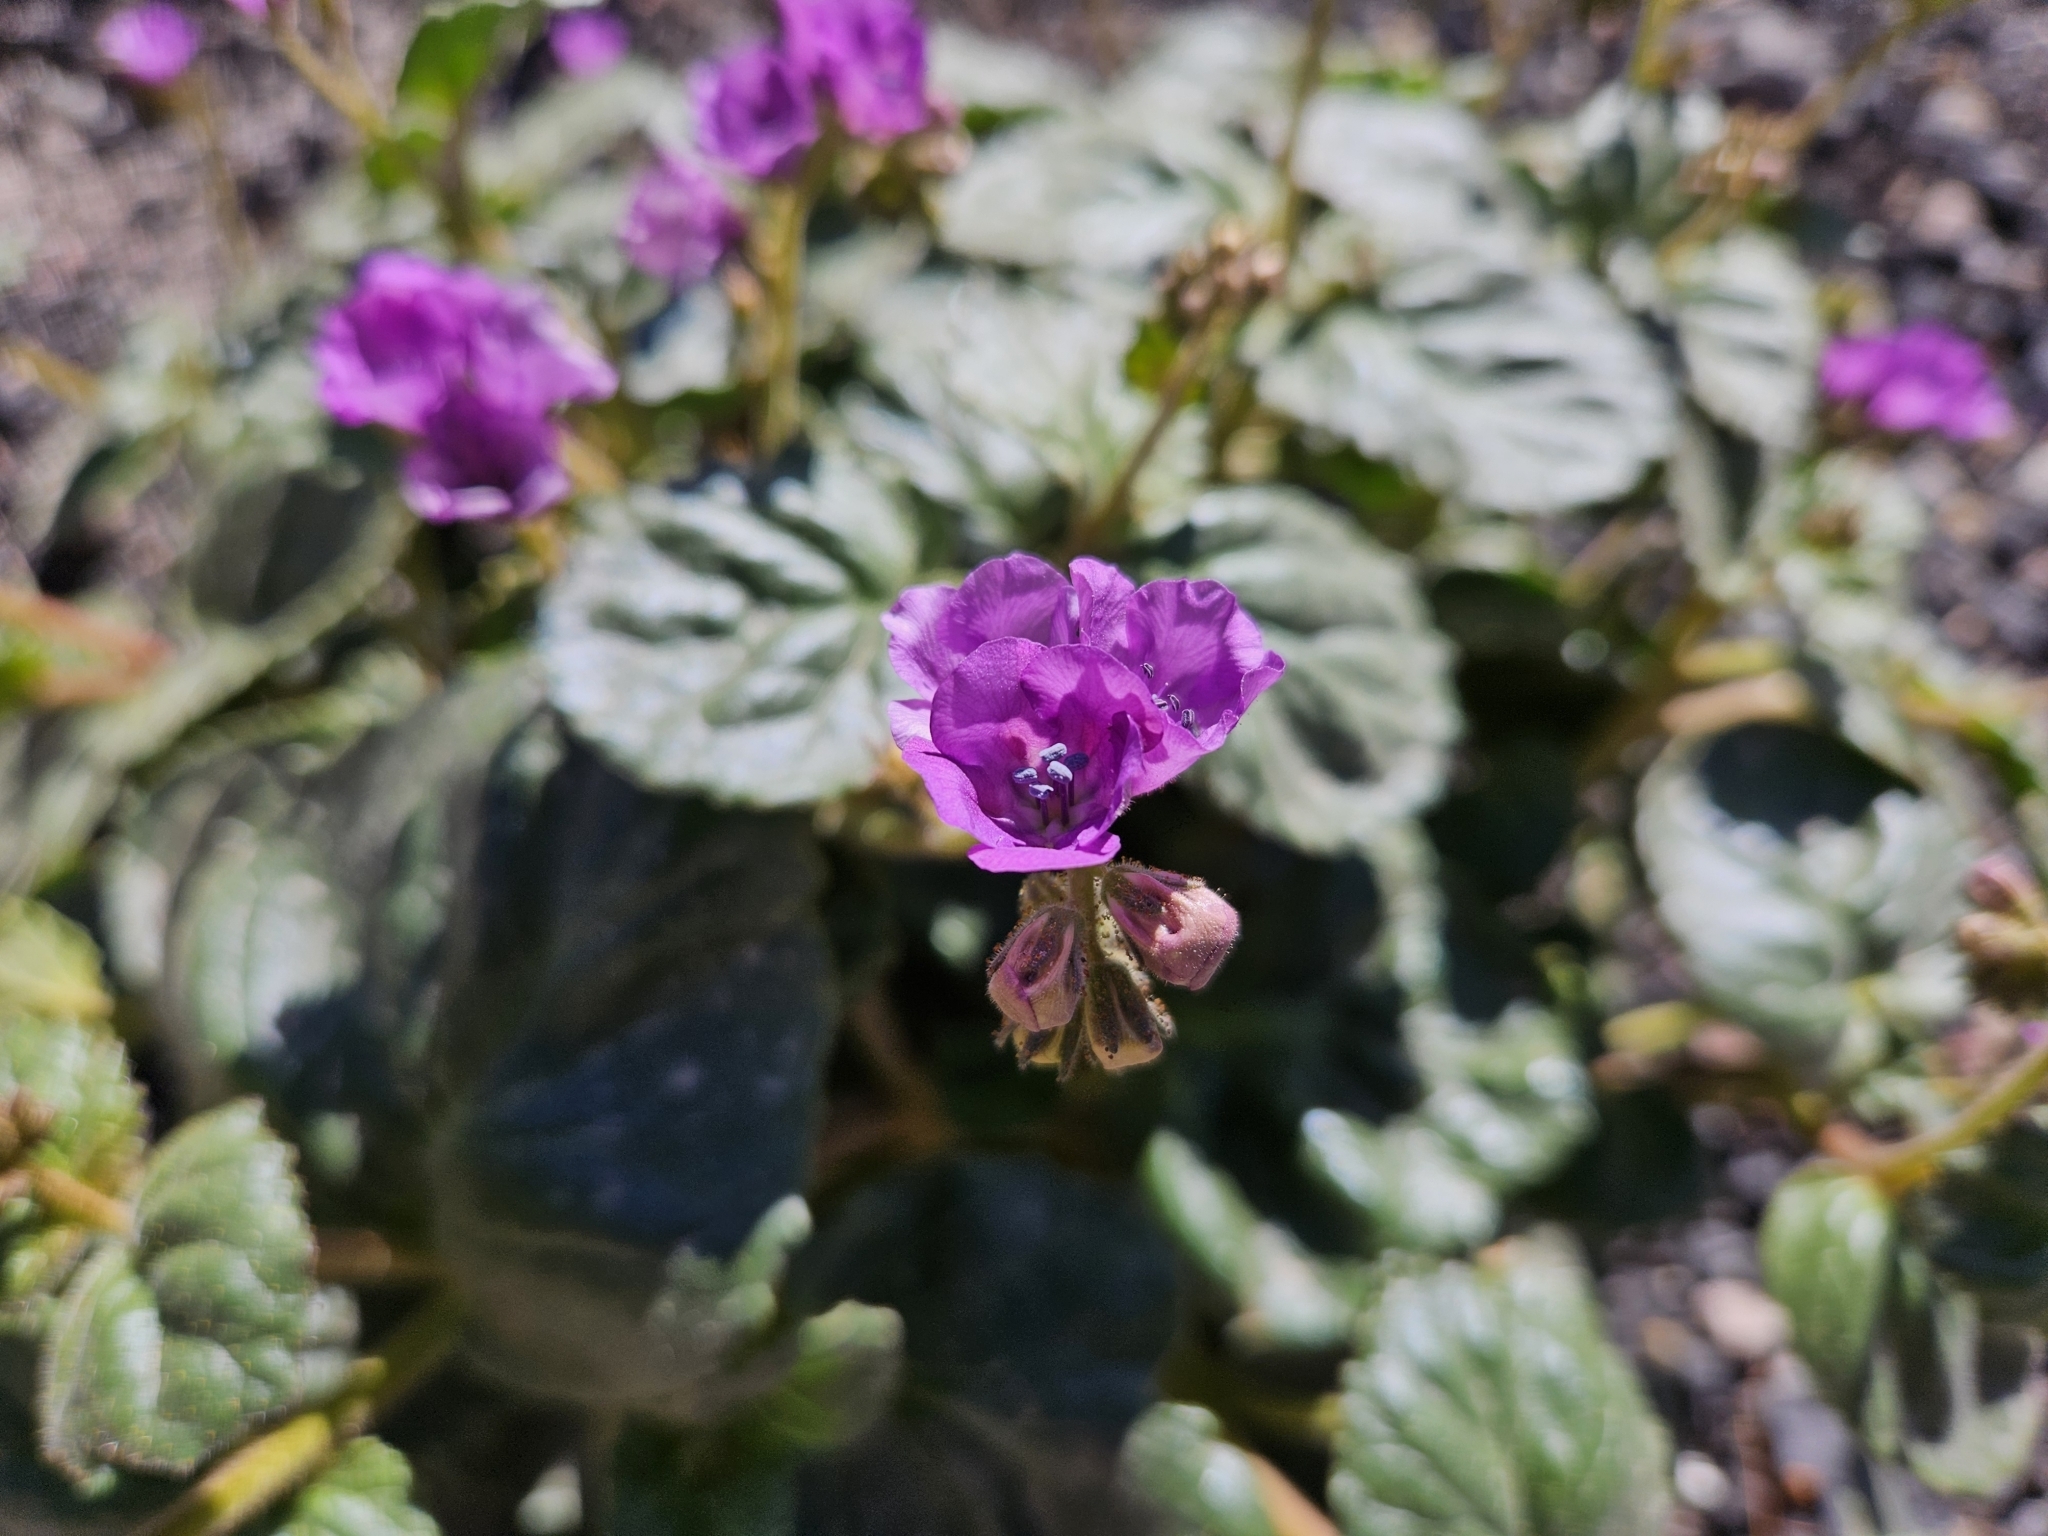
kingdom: Plantae
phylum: Tracheophyta
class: Magnoliopsida
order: Boraginales
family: Hydrophyllaceae
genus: Phacelia
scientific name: Phacelia calthifolia
